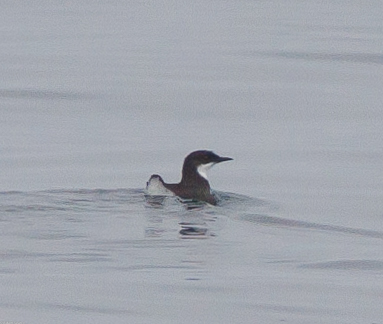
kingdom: Animalia
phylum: Chordata
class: Aves
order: Charadriiformes
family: Alcidae
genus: Synthliboramphus
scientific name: Synthliboramphus craveri
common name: Craveri's murrelet
